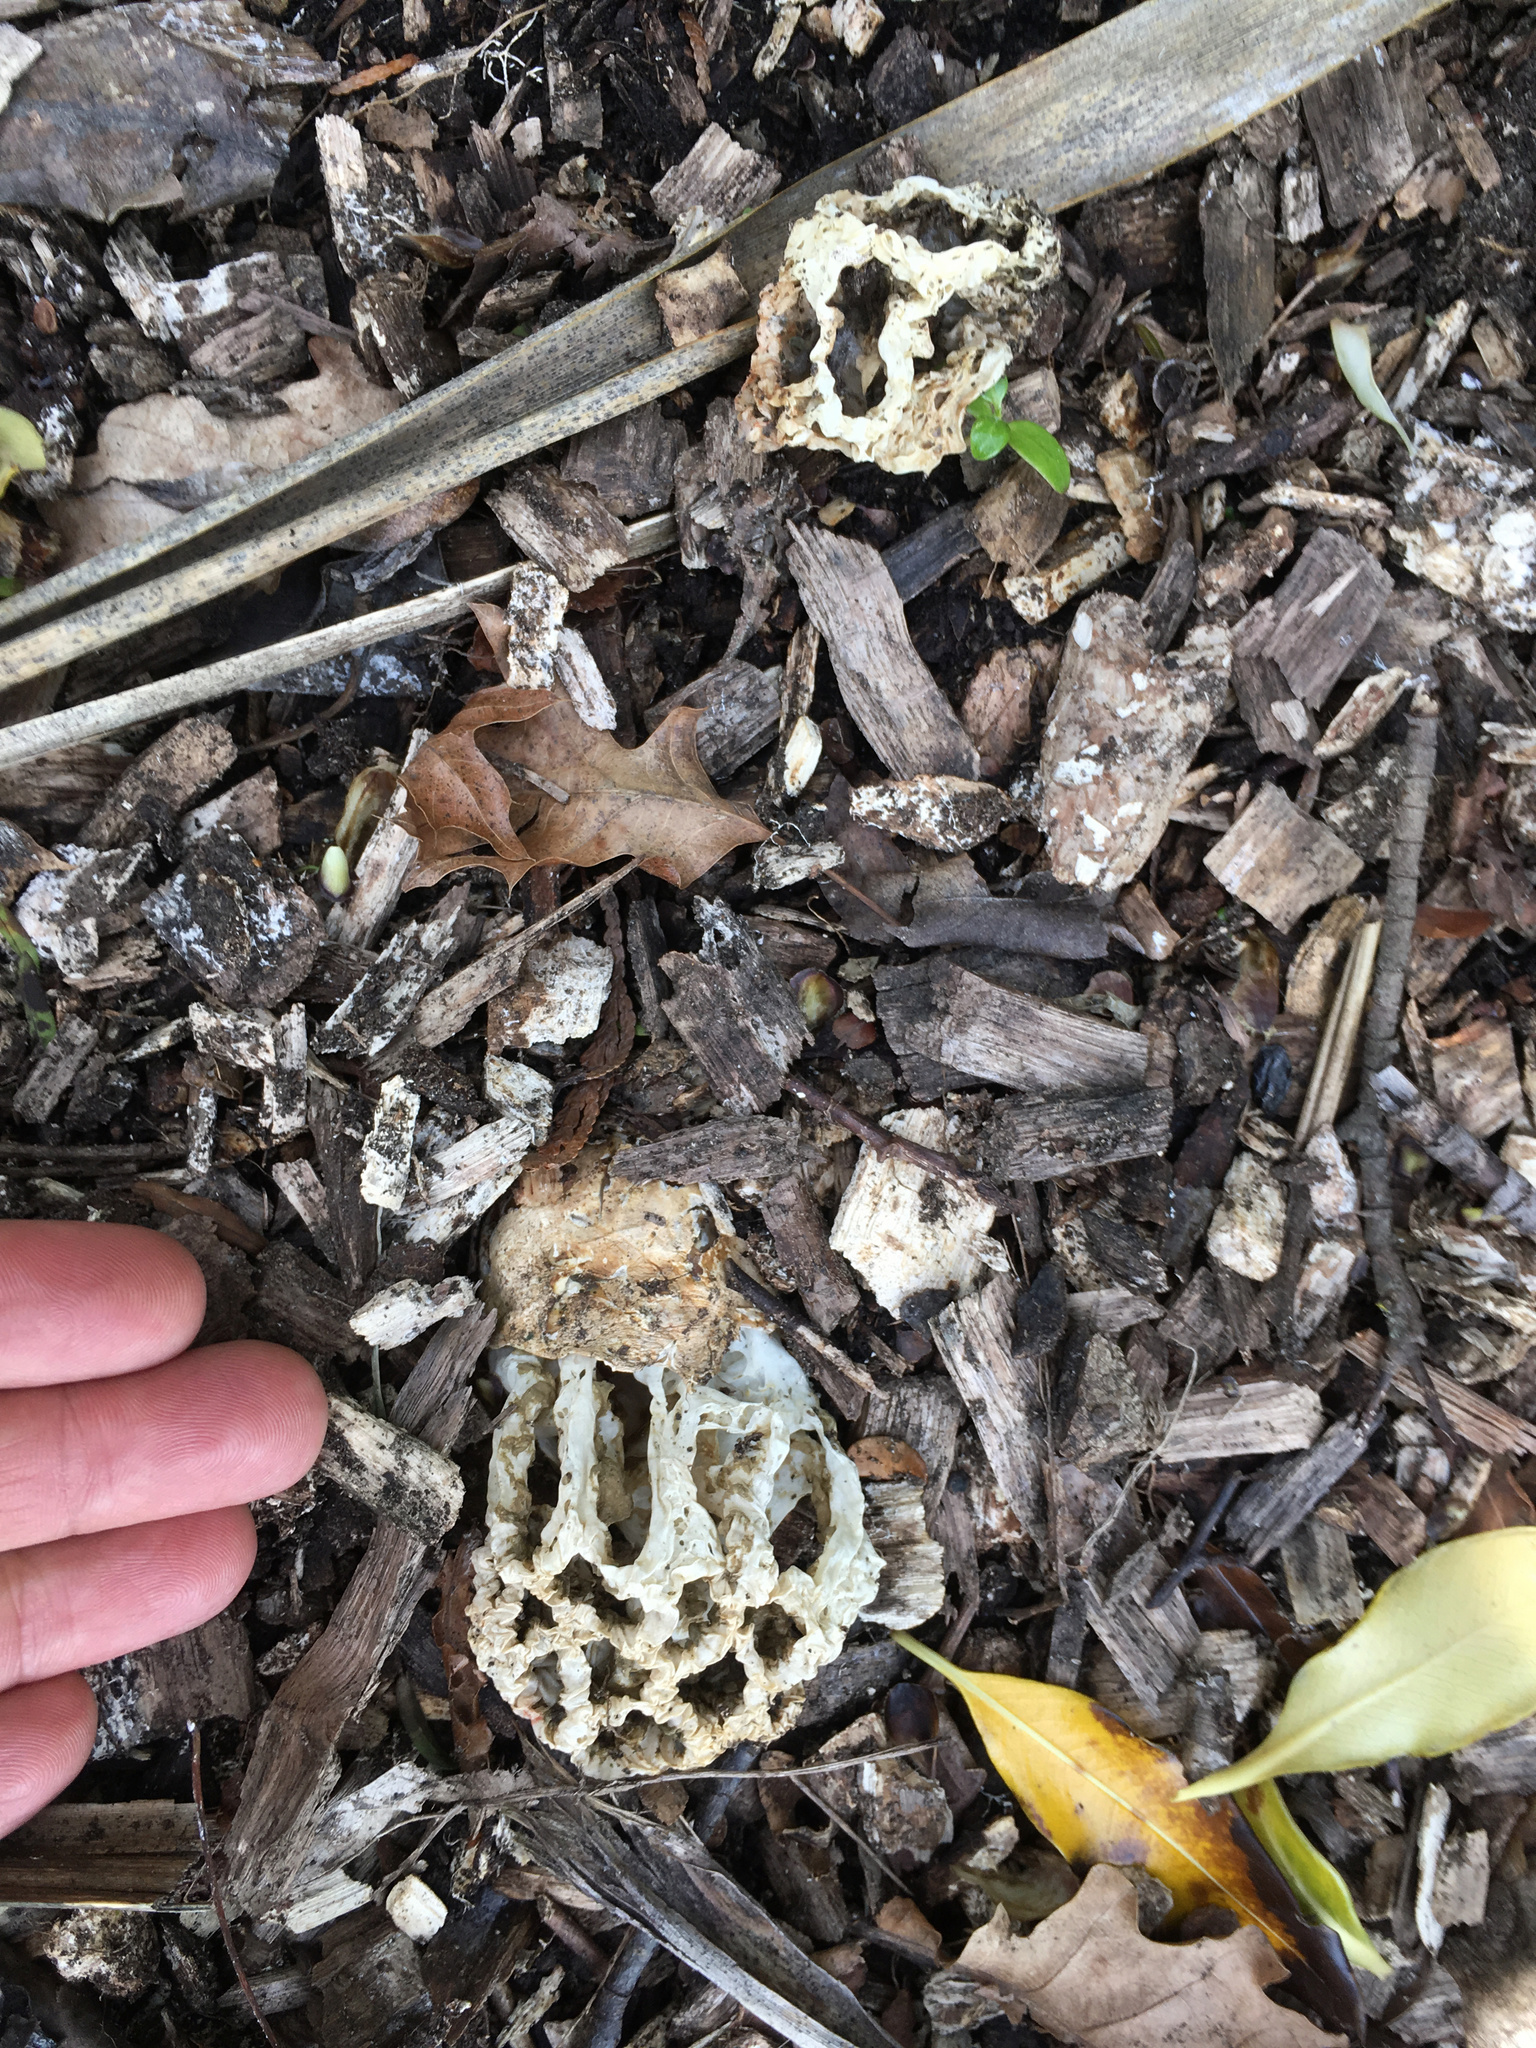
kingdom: Fungi
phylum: Basidiomycota
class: Agaricomycetes
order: Phallales
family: Phallaceae
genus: Ileodictyon
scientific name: Ileodictyon cibarium
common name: Basket fungus
